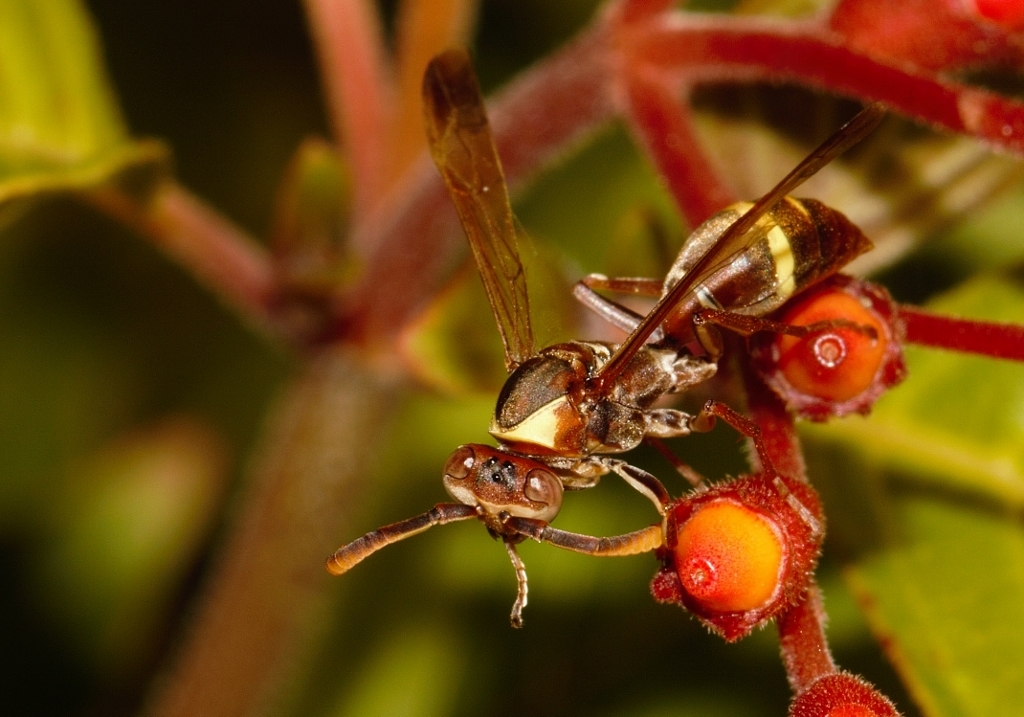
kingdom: Animalia
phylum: Arthropoda
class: Insecta
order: Hymenoptera
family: Eumenidae
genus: Polistes
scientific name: Polistes badius
